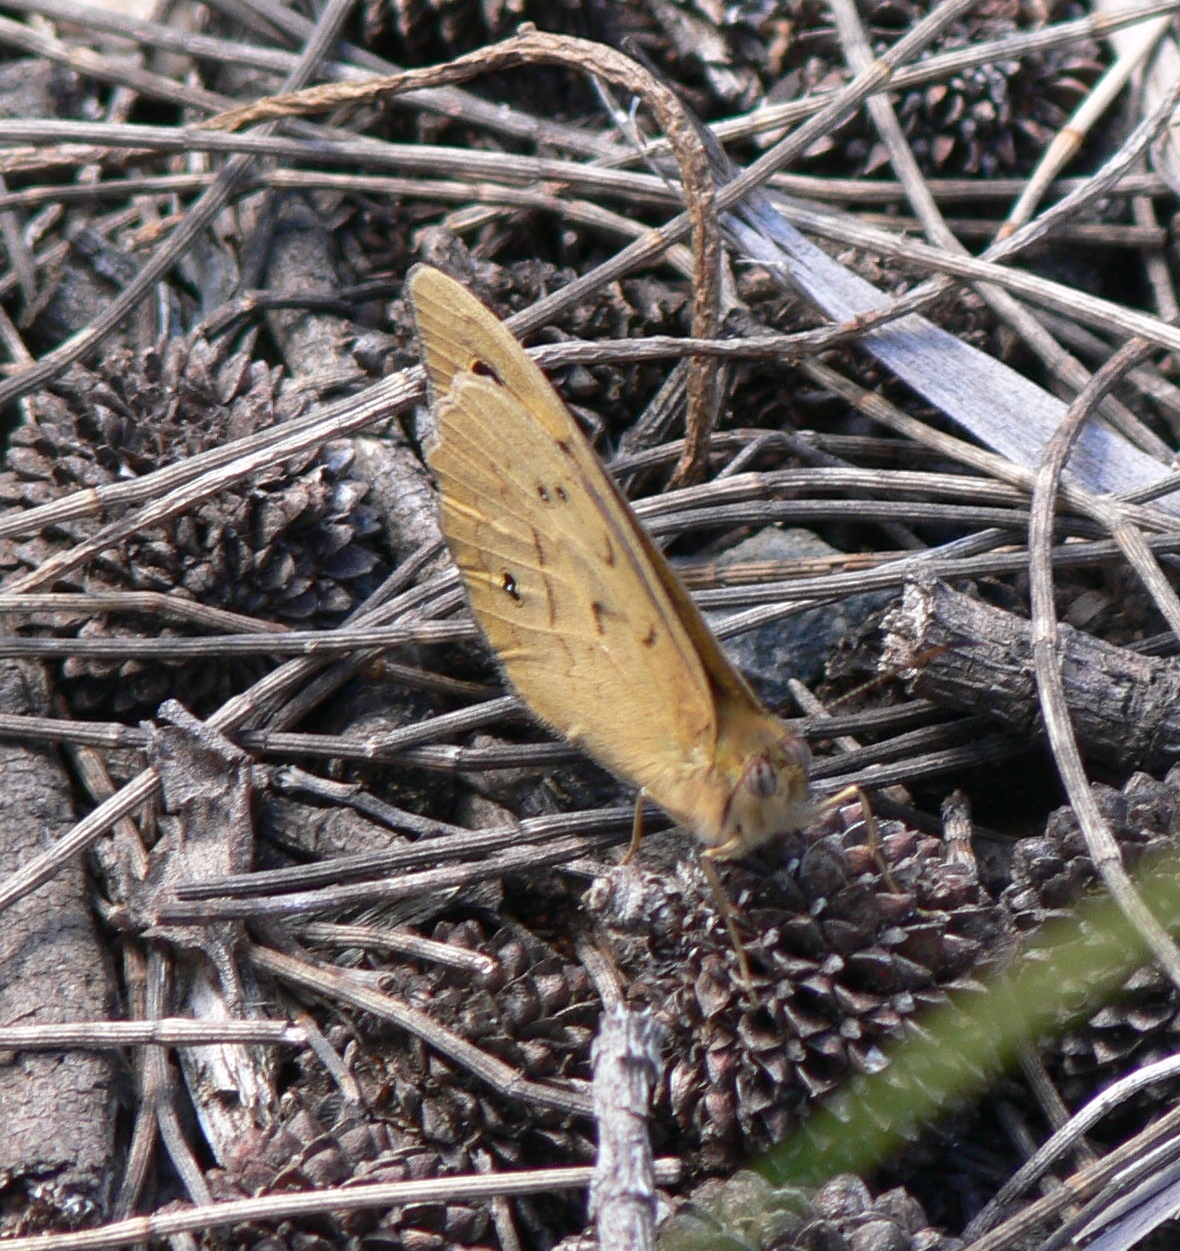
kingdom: Animalia
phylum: Arthropoda
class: Insecta
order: Lepidoptera
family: Nymphalidae
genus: Heteronympha
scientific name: Heteronympha merope
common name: Common brown
